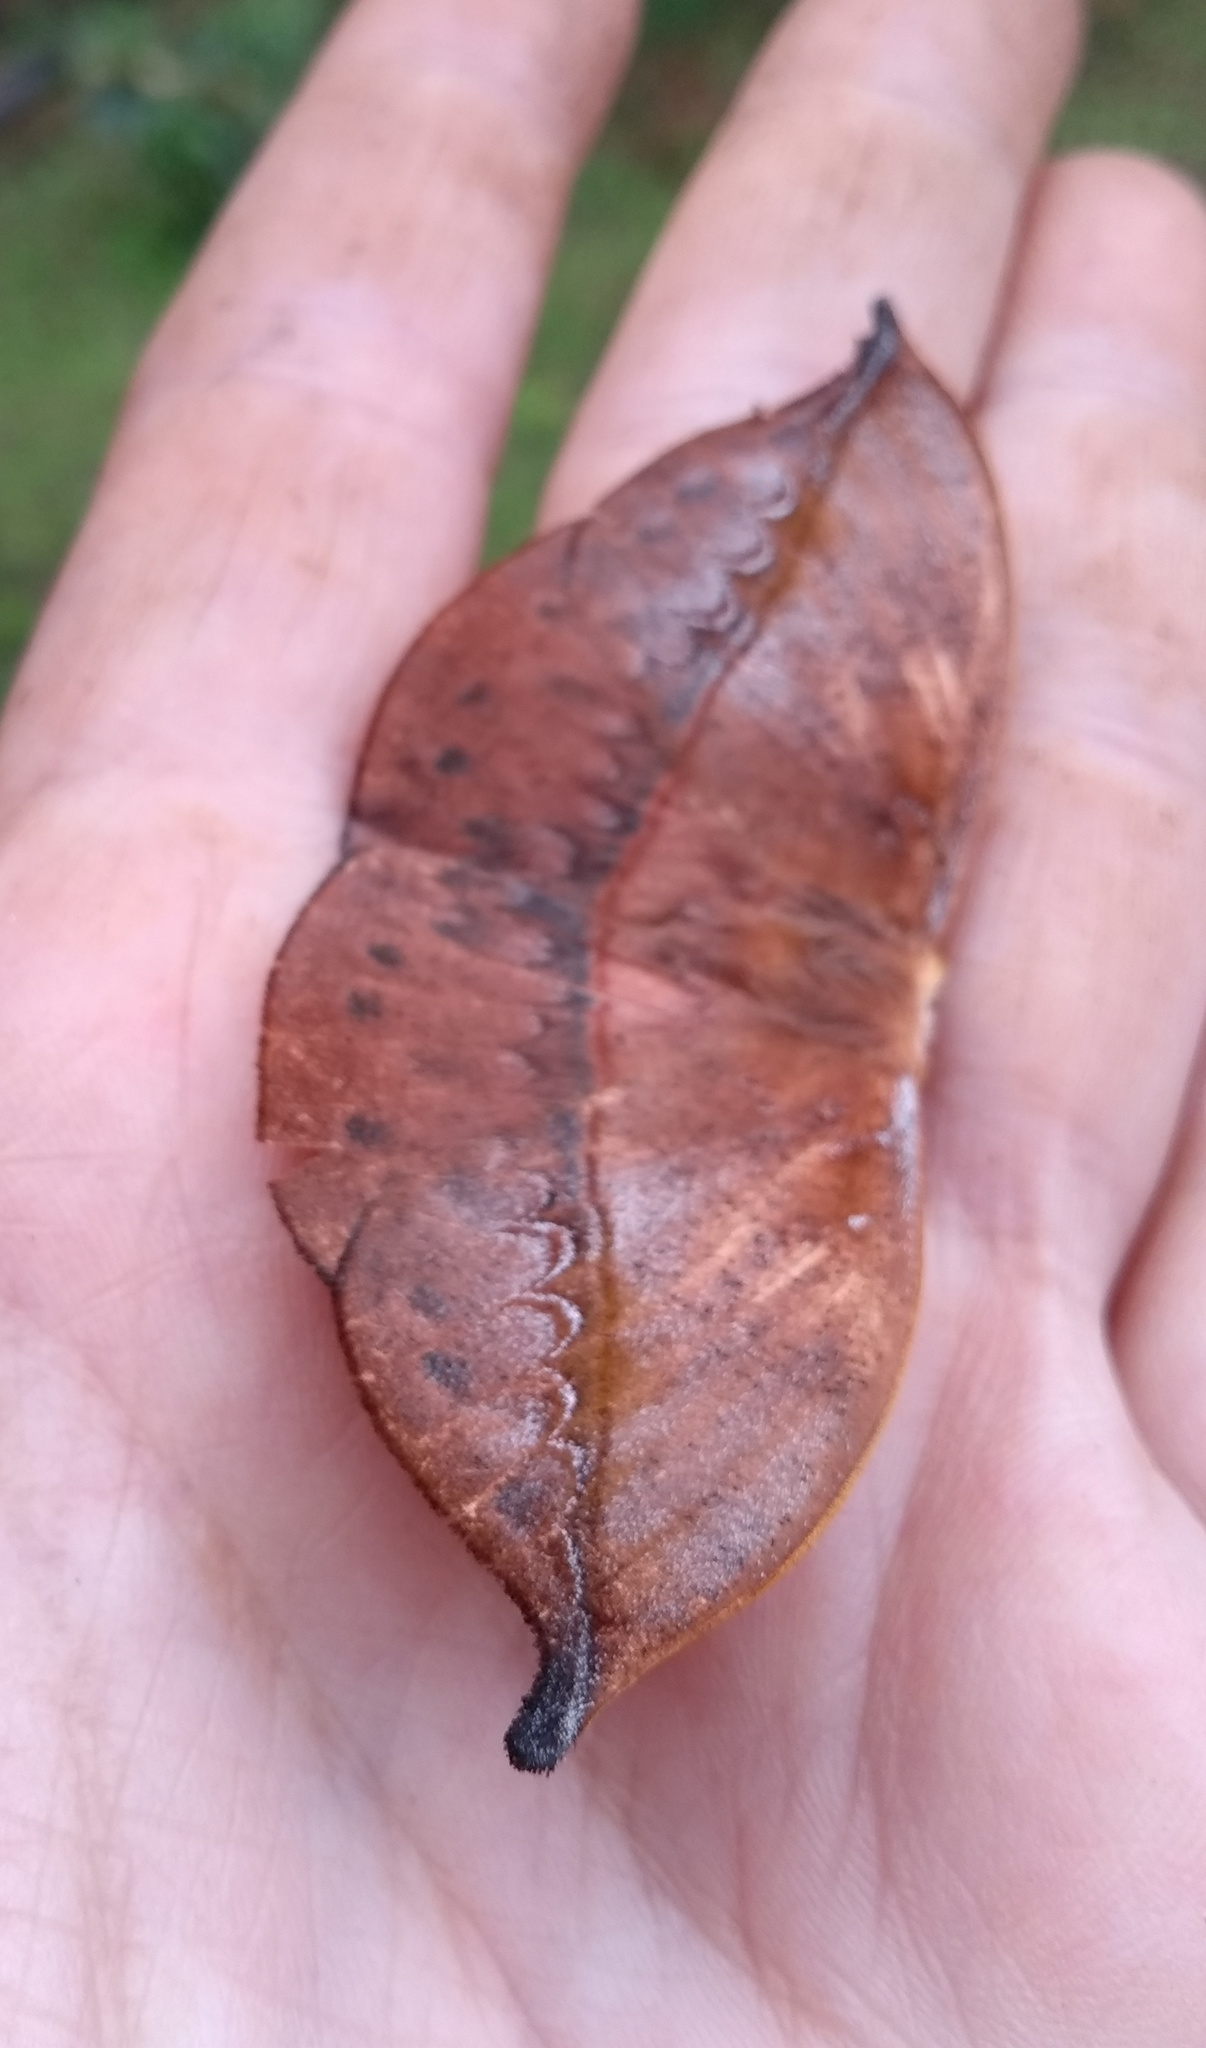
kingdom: Animalia
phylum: Arthropoda
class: Insecta
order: Lepidoptera
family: Saturniidae
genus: Oxytenis
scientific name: Oxytenis modestia
